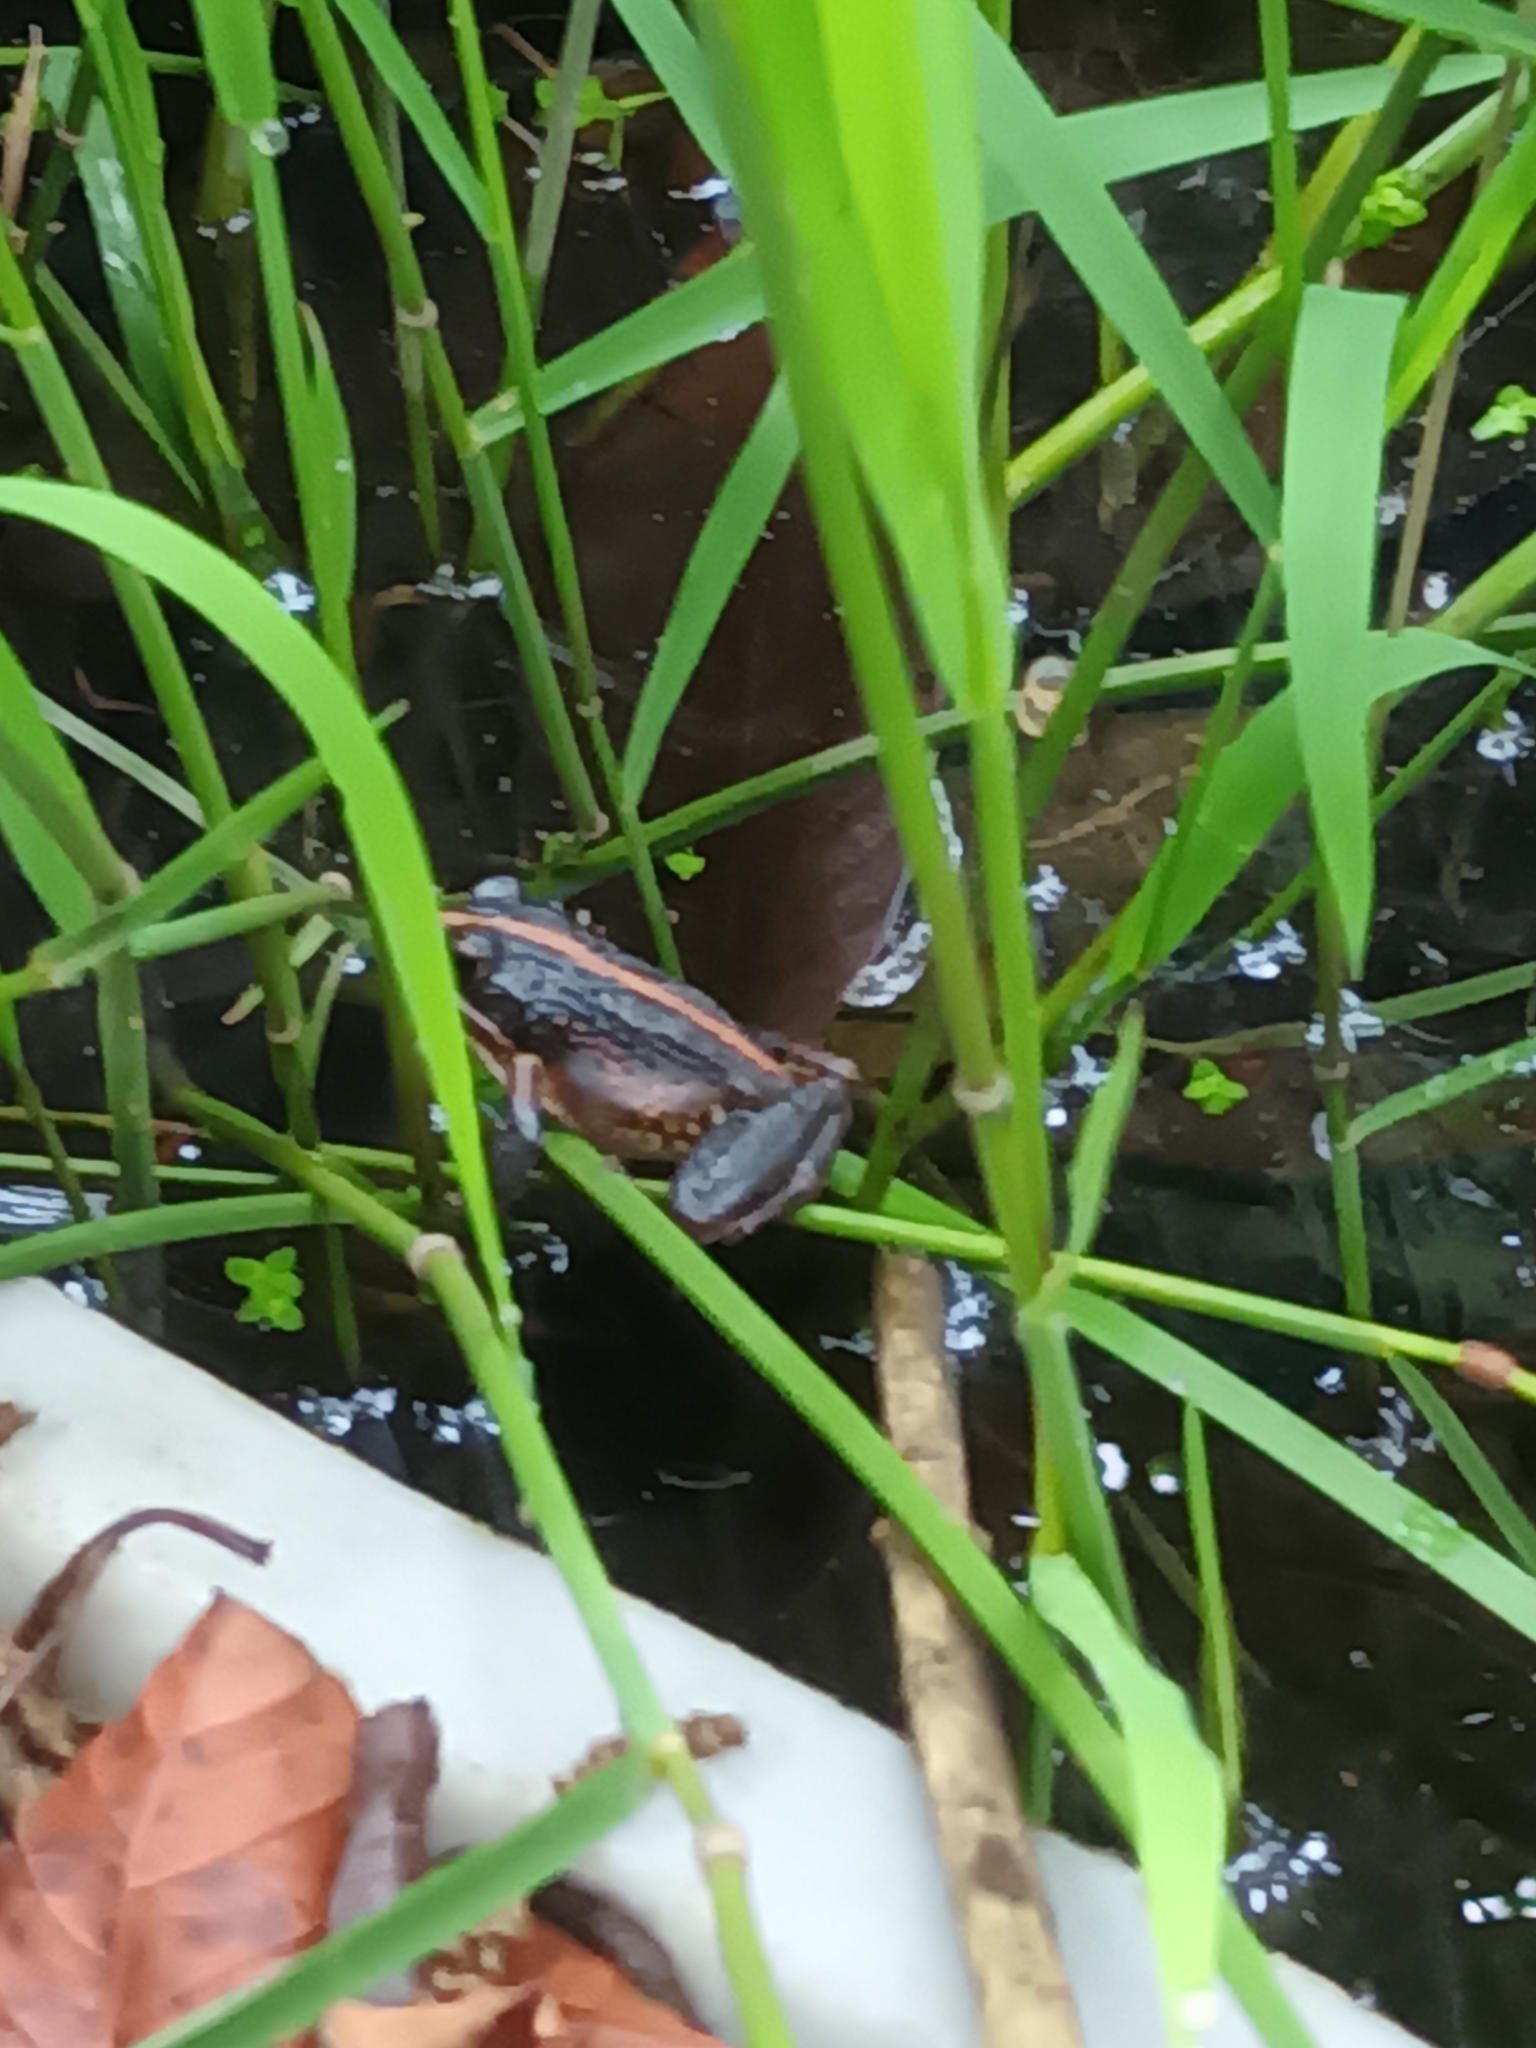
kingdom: Animalia
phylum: Chordata
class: Amphibia
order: Anura
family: Pyxicephalidae
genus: Strongylopus
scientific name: Strongylopus grayii
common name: Gray's stream frog
